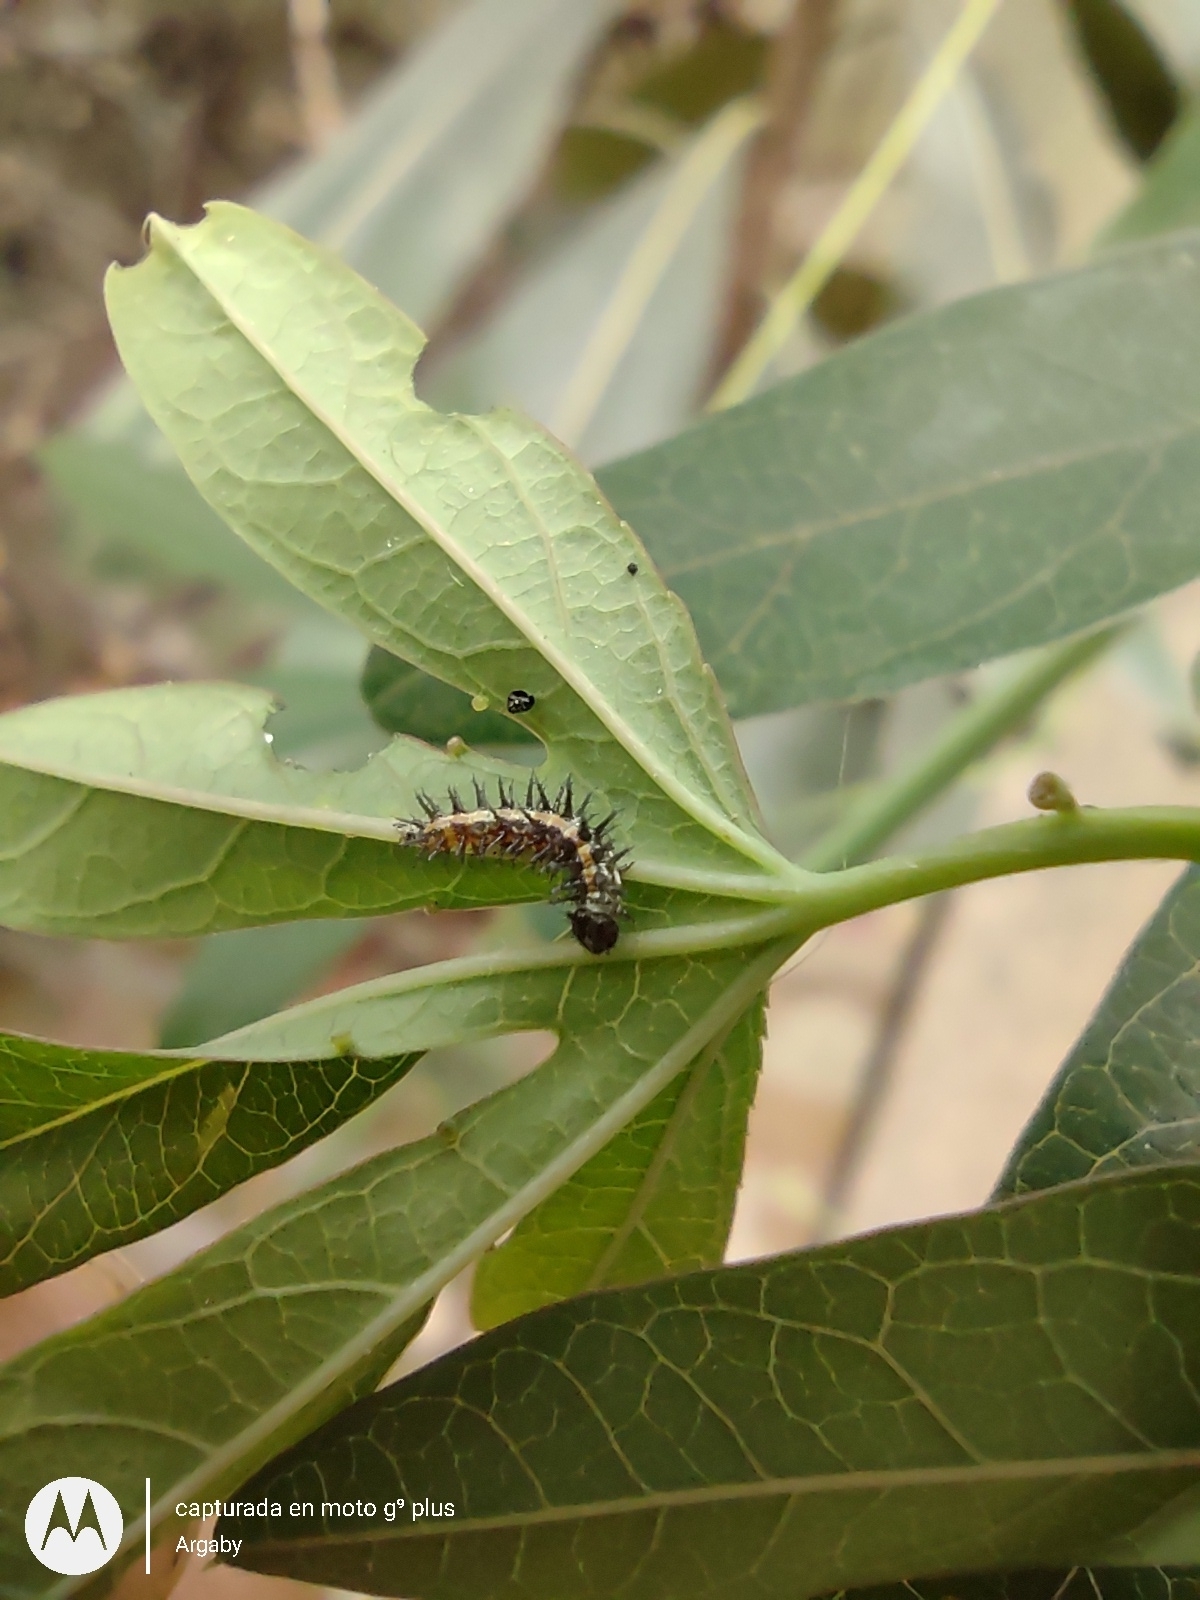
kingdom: Animalia
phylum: Arthropoda
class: Insecta
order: Lepidoptera
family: Nymphalidae
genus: Dione
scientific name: Dione vanillae
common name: Gulf fritillary
